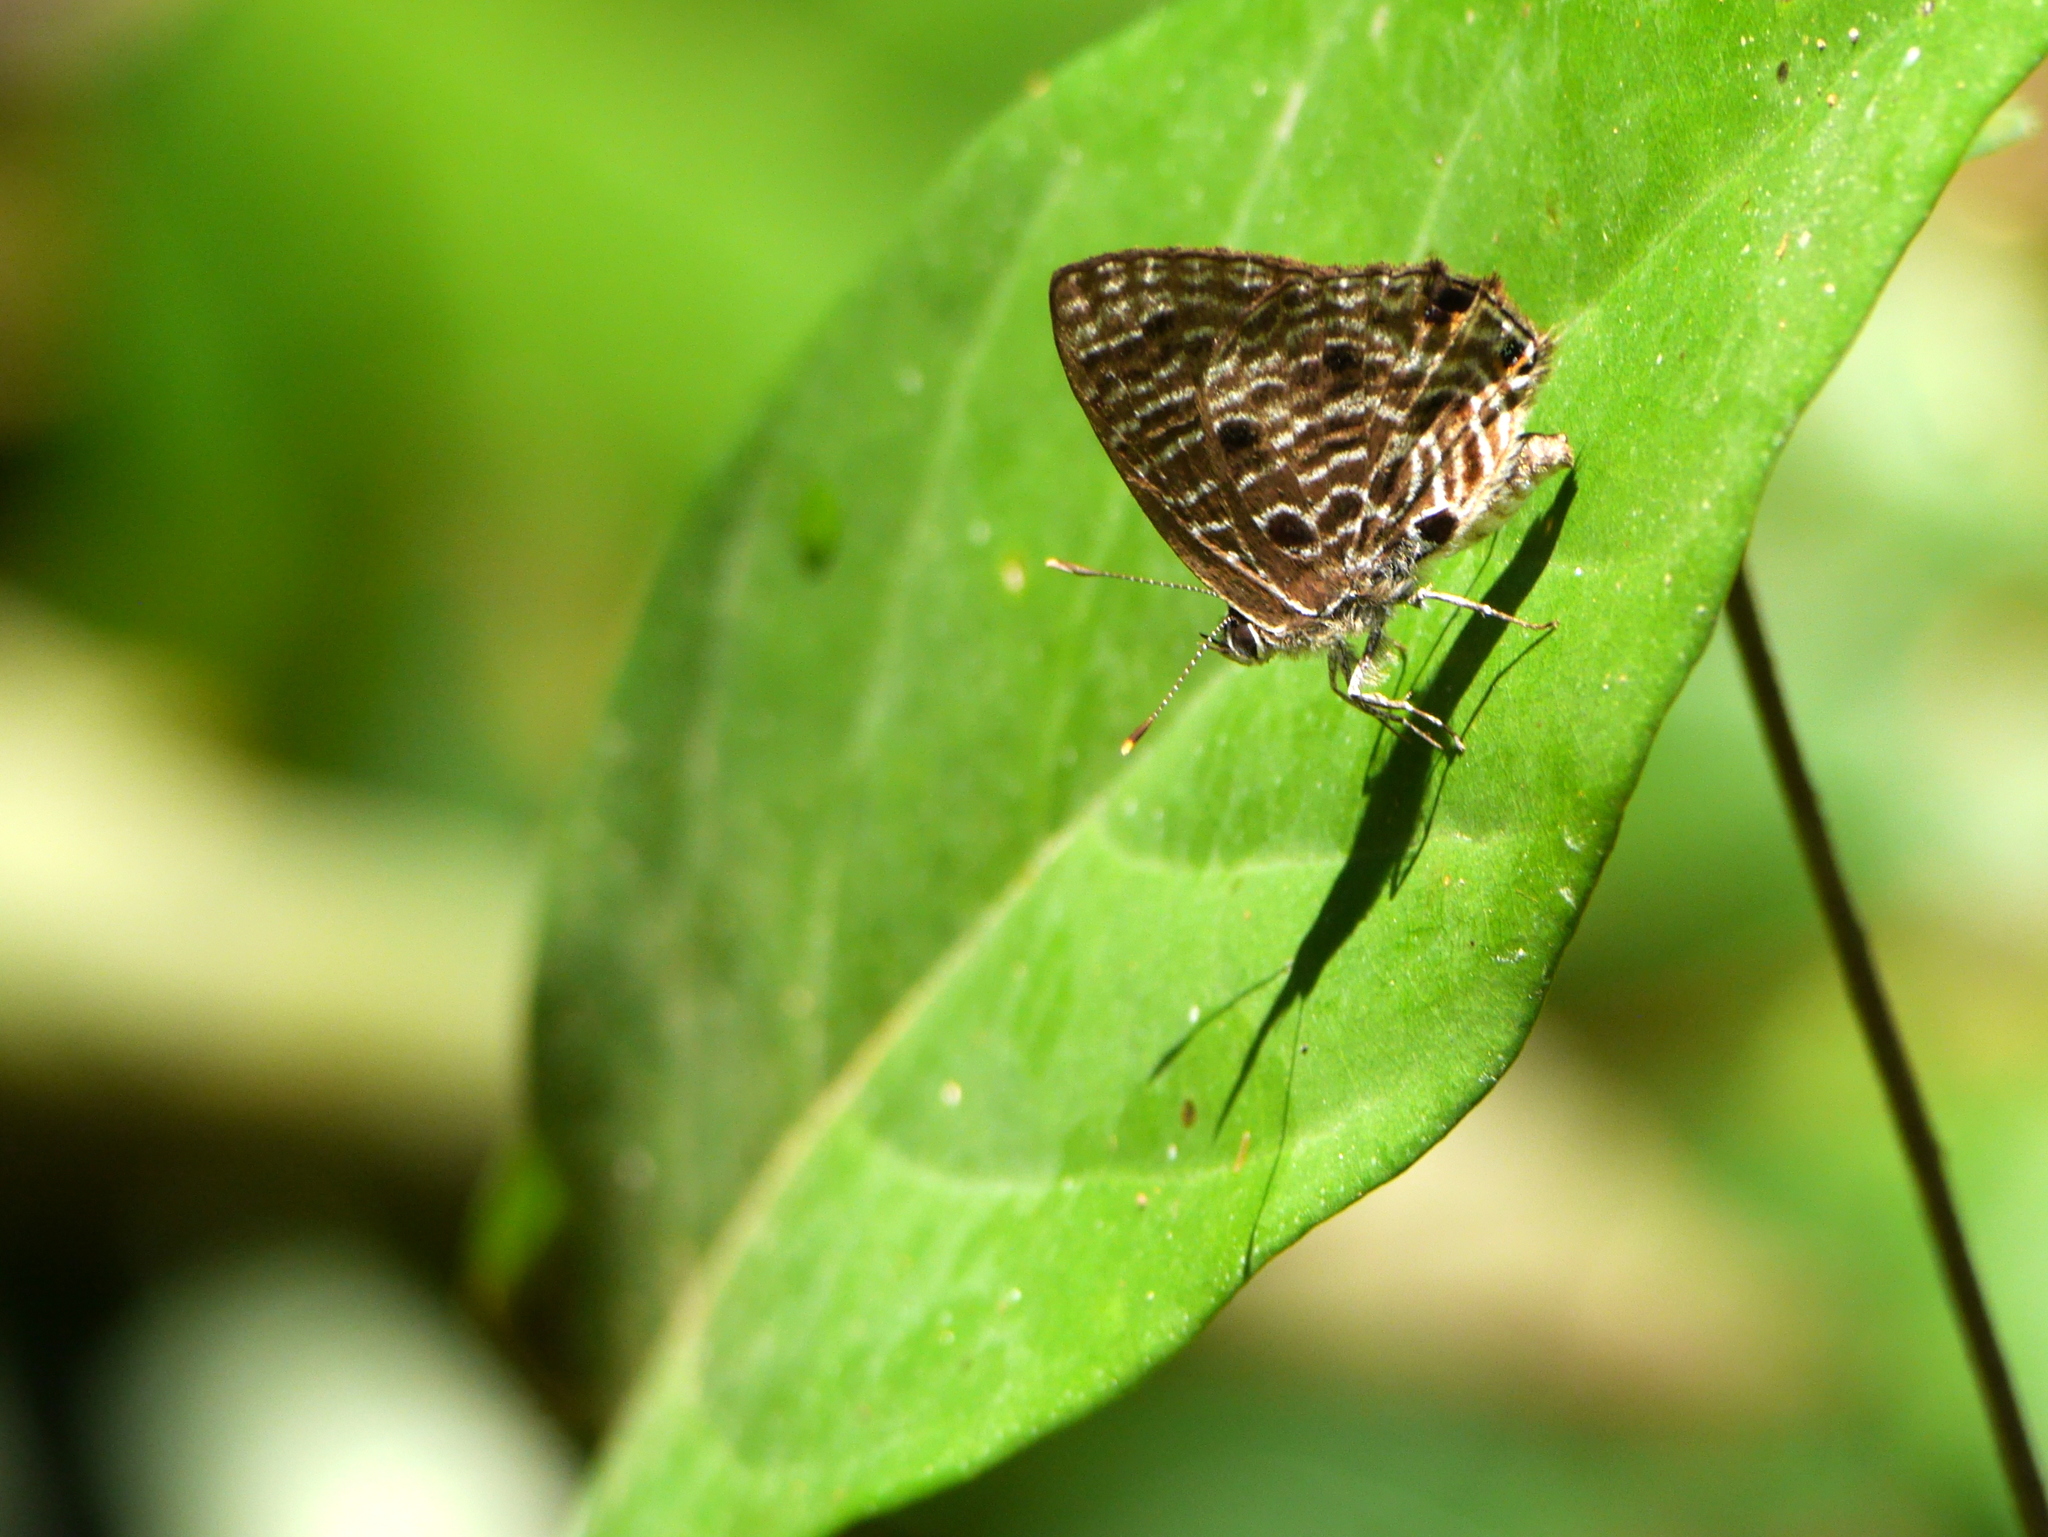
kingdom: Animalia
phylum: Arthropoda
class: Insecta
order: Lepidoptera
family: Lycaenidae
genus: Anthene
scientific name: Anthene larydas
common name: Forest hairtail
